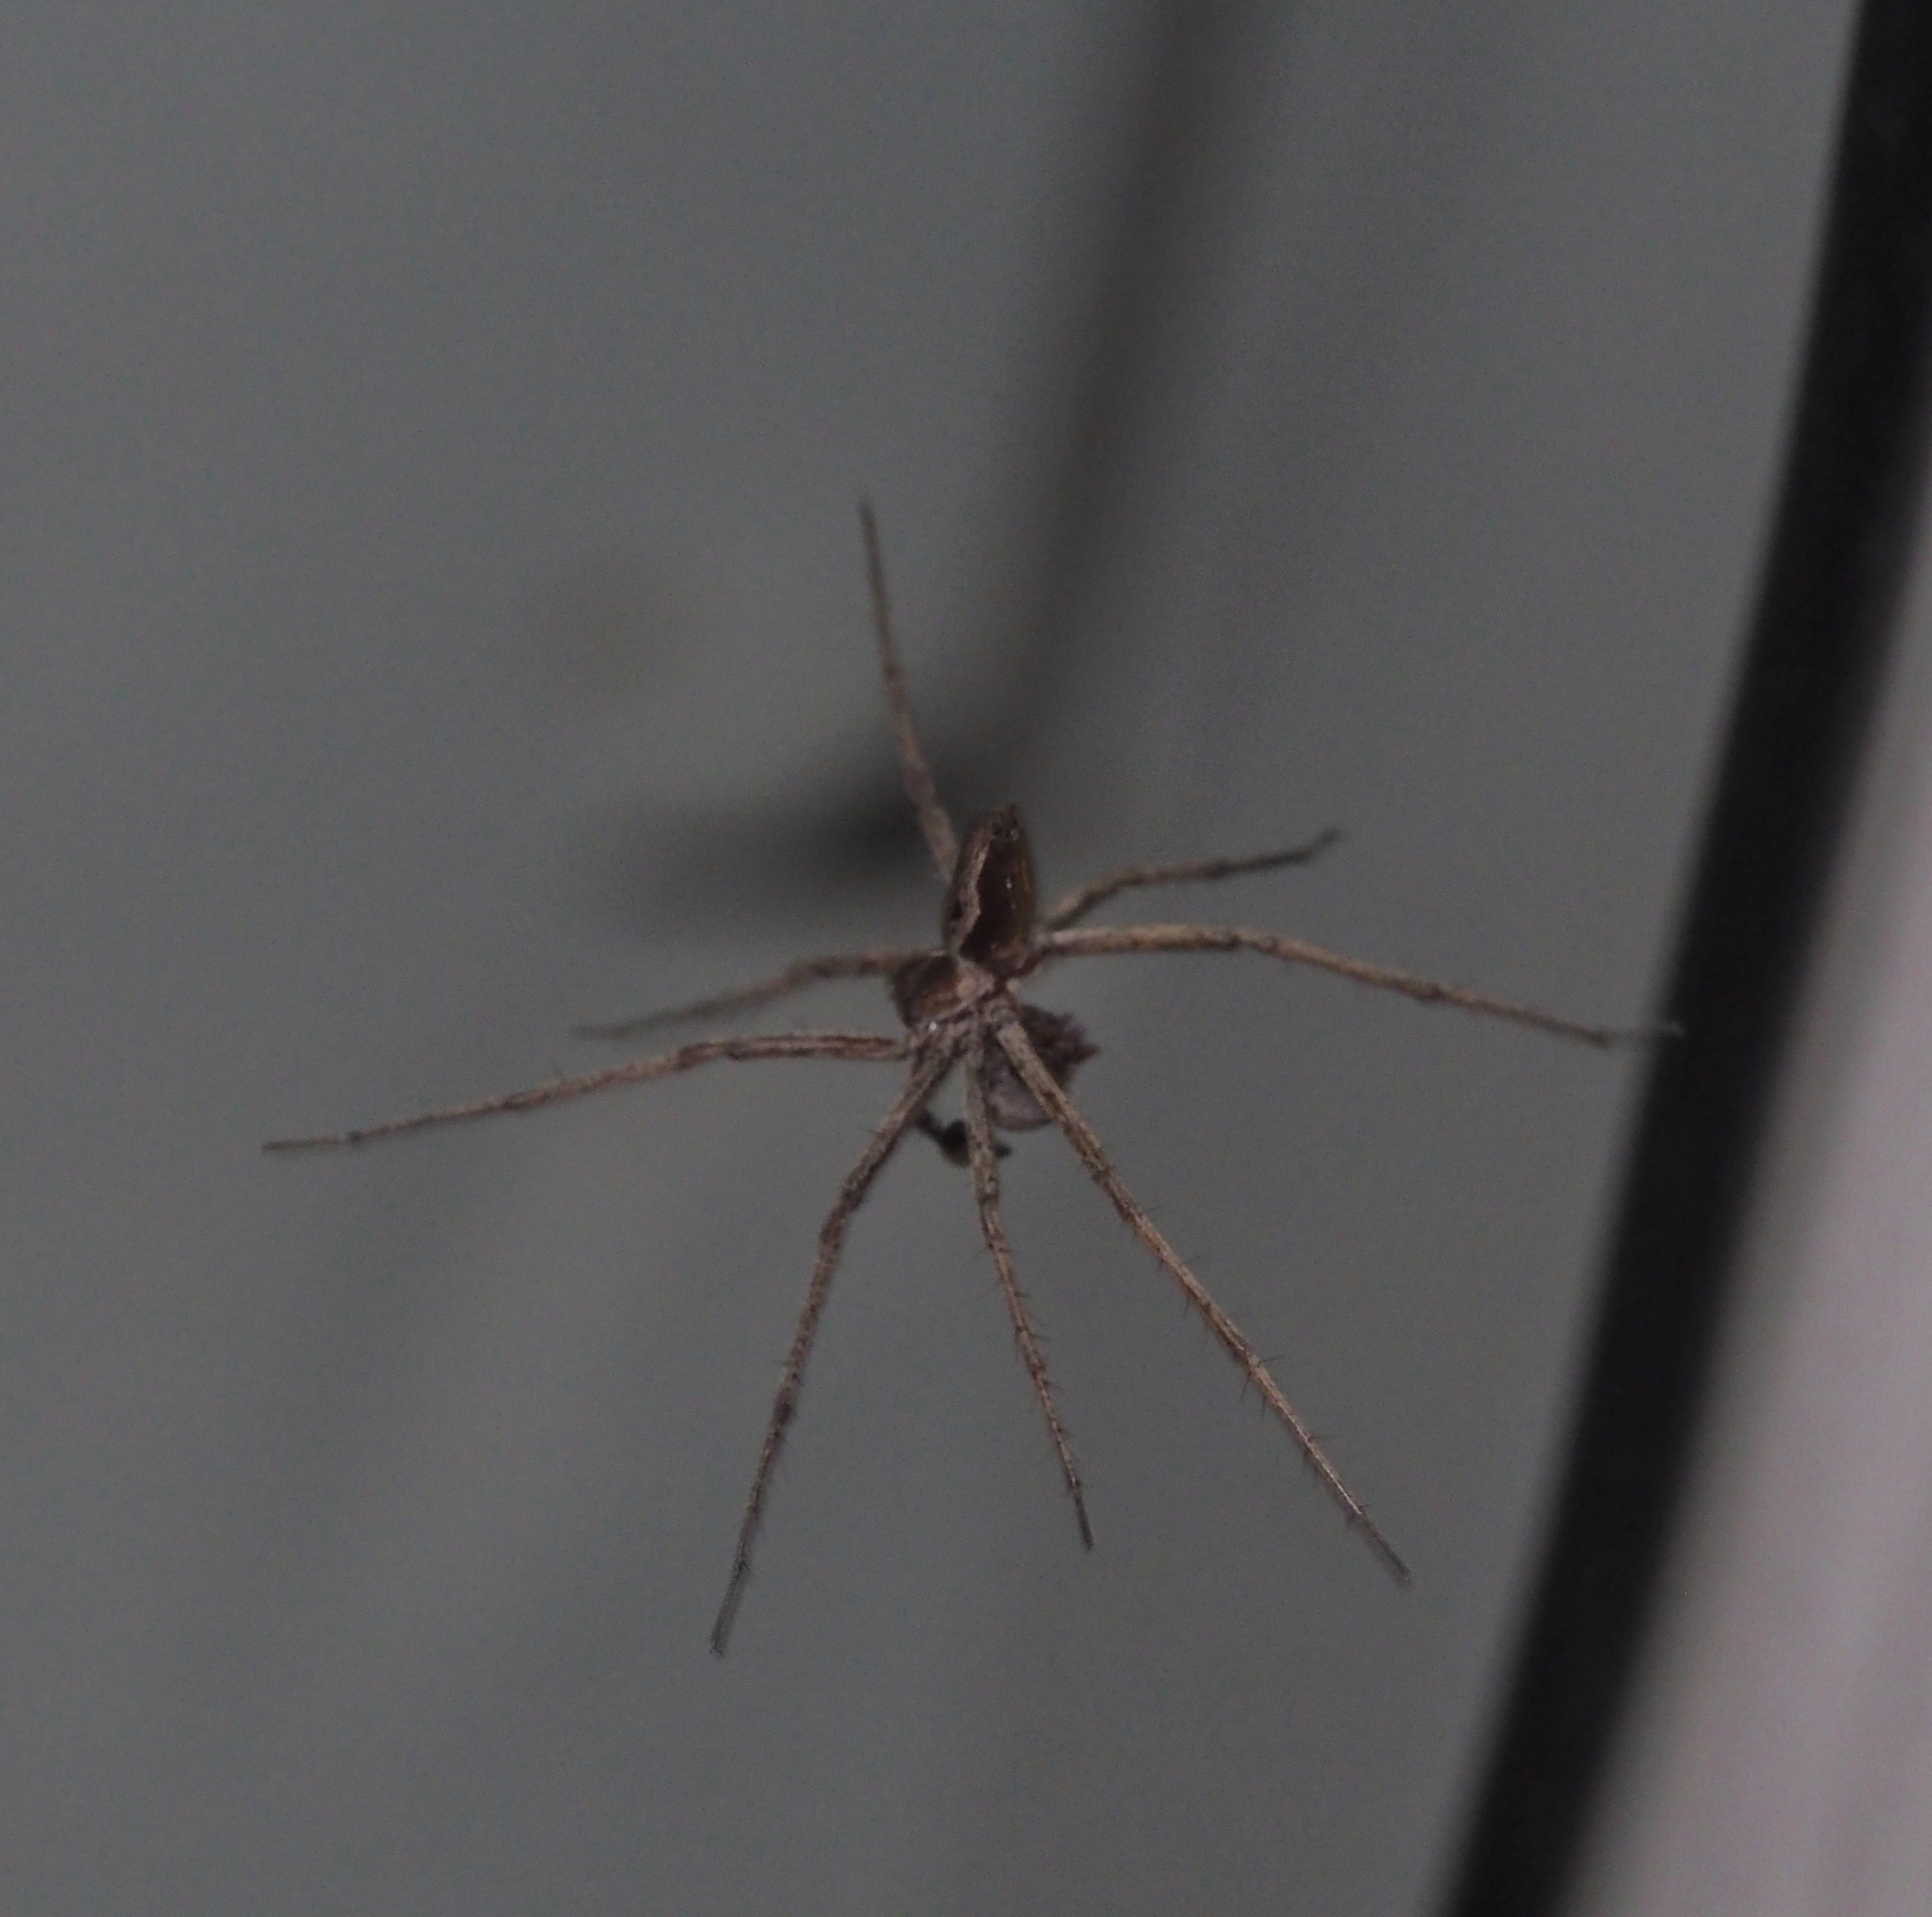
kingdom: Animalia
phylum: Arthropoda
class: Arachnida
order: Araneae
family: Pisauridae
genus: Pisaura
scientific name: Pisaura mirabilis
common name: Tent spider
